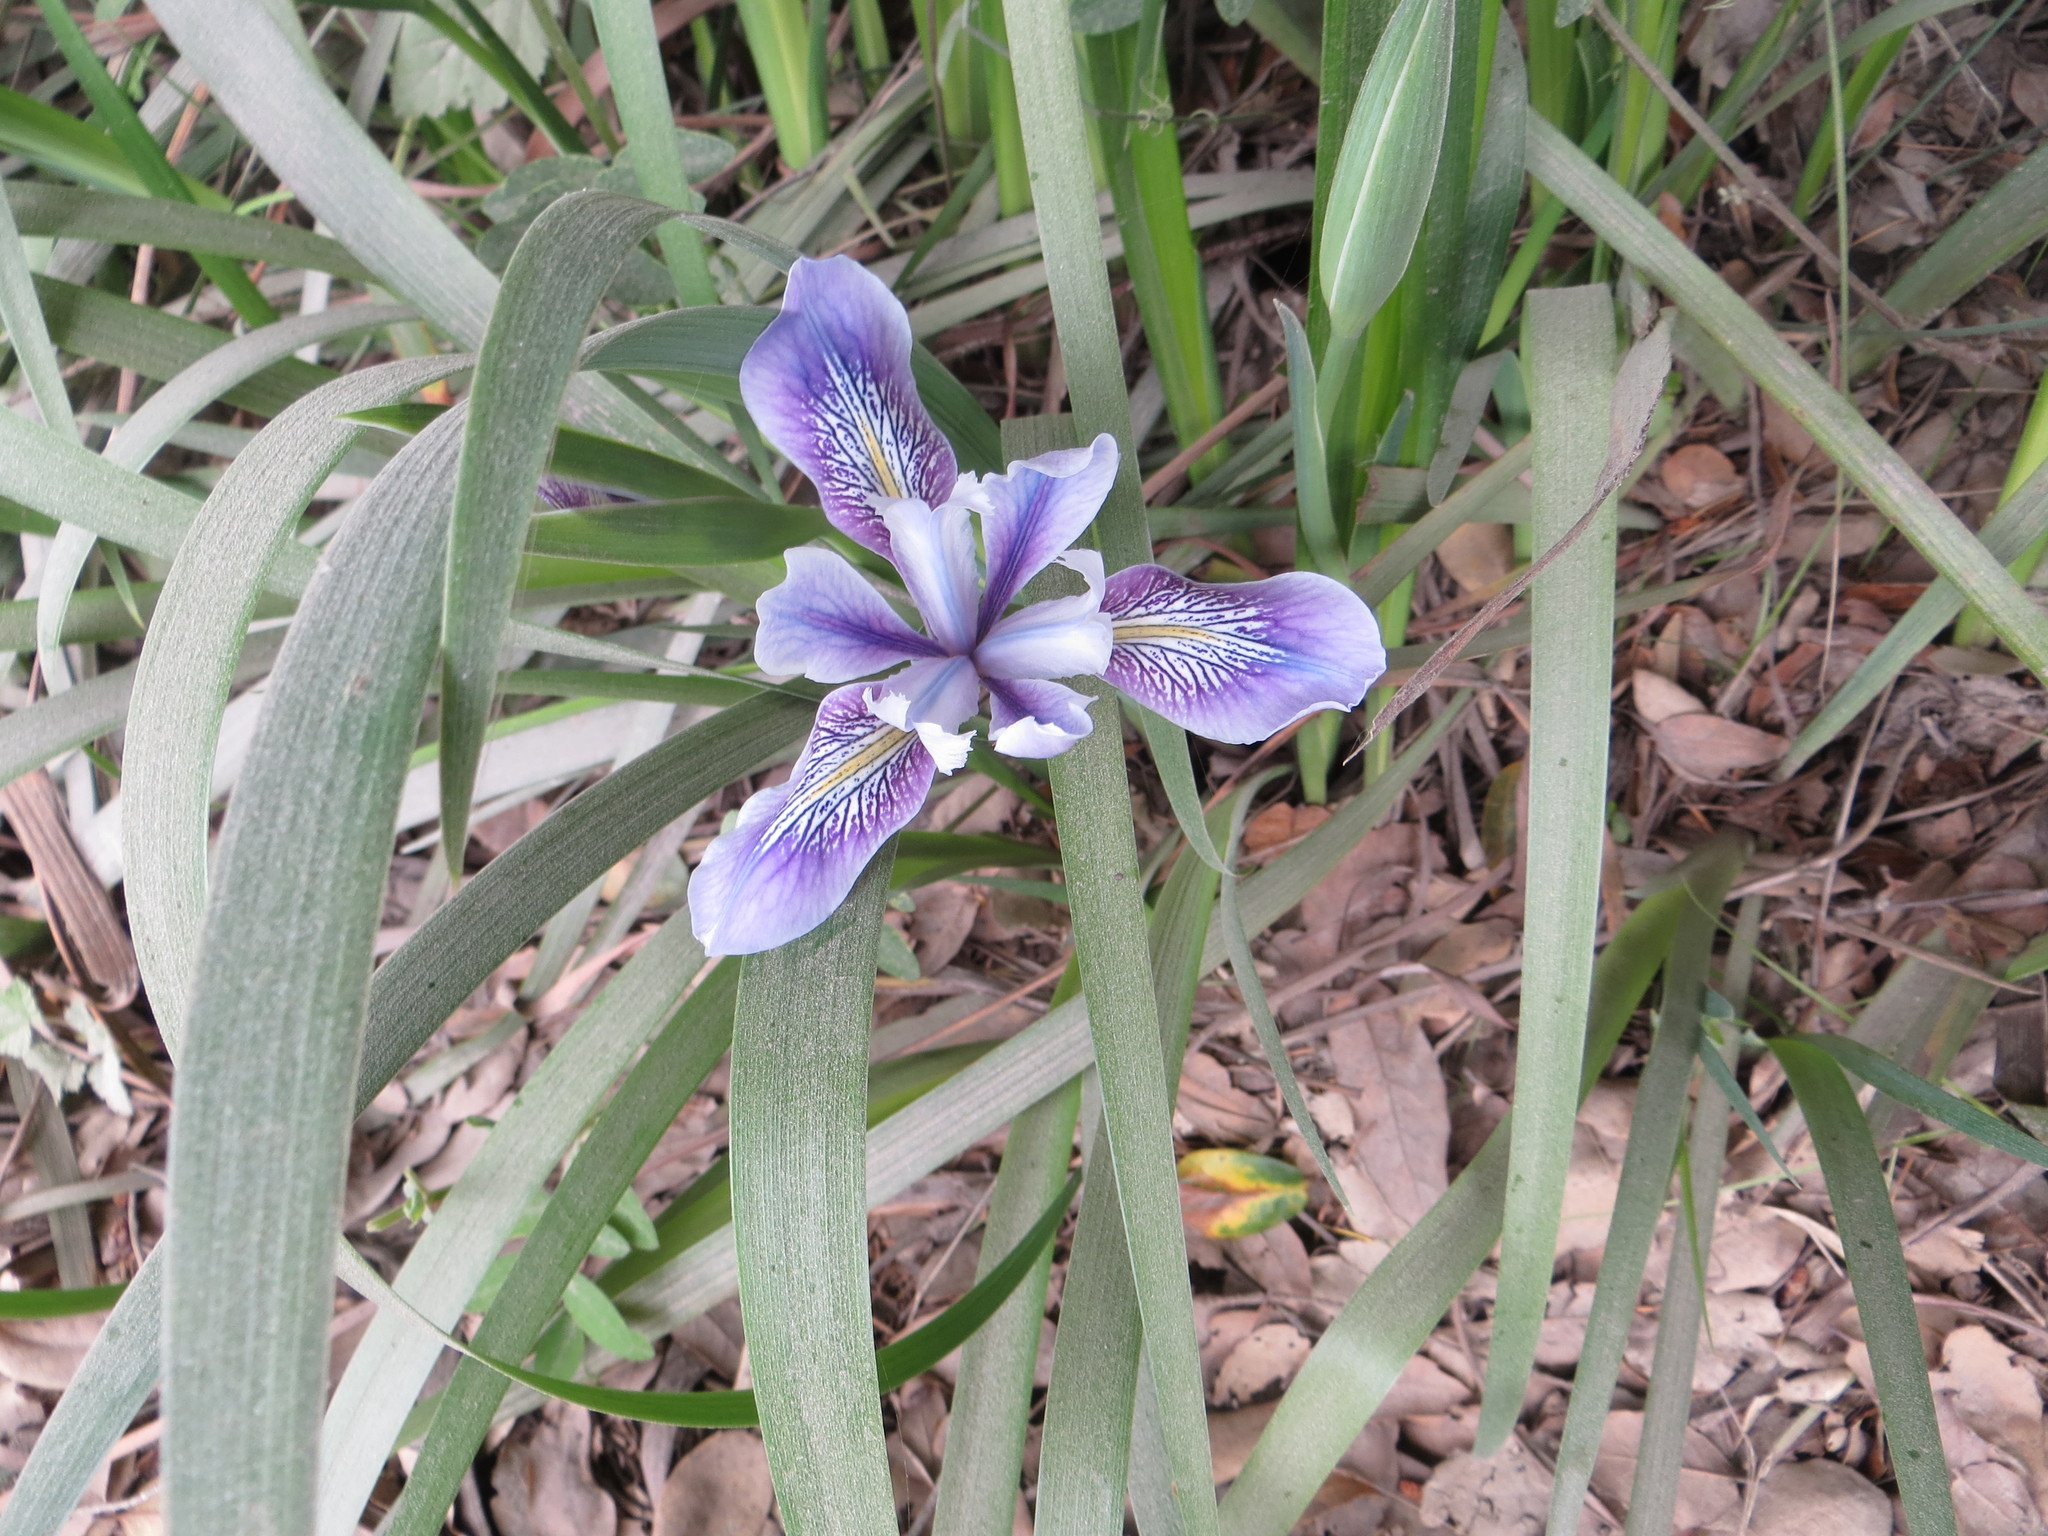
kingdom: Plantae
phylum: Tracheophyta
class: Liliopsida
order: Asparagales
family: Iridaceae
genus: Iris
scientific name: Iris douglasiana
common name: Marin iris
